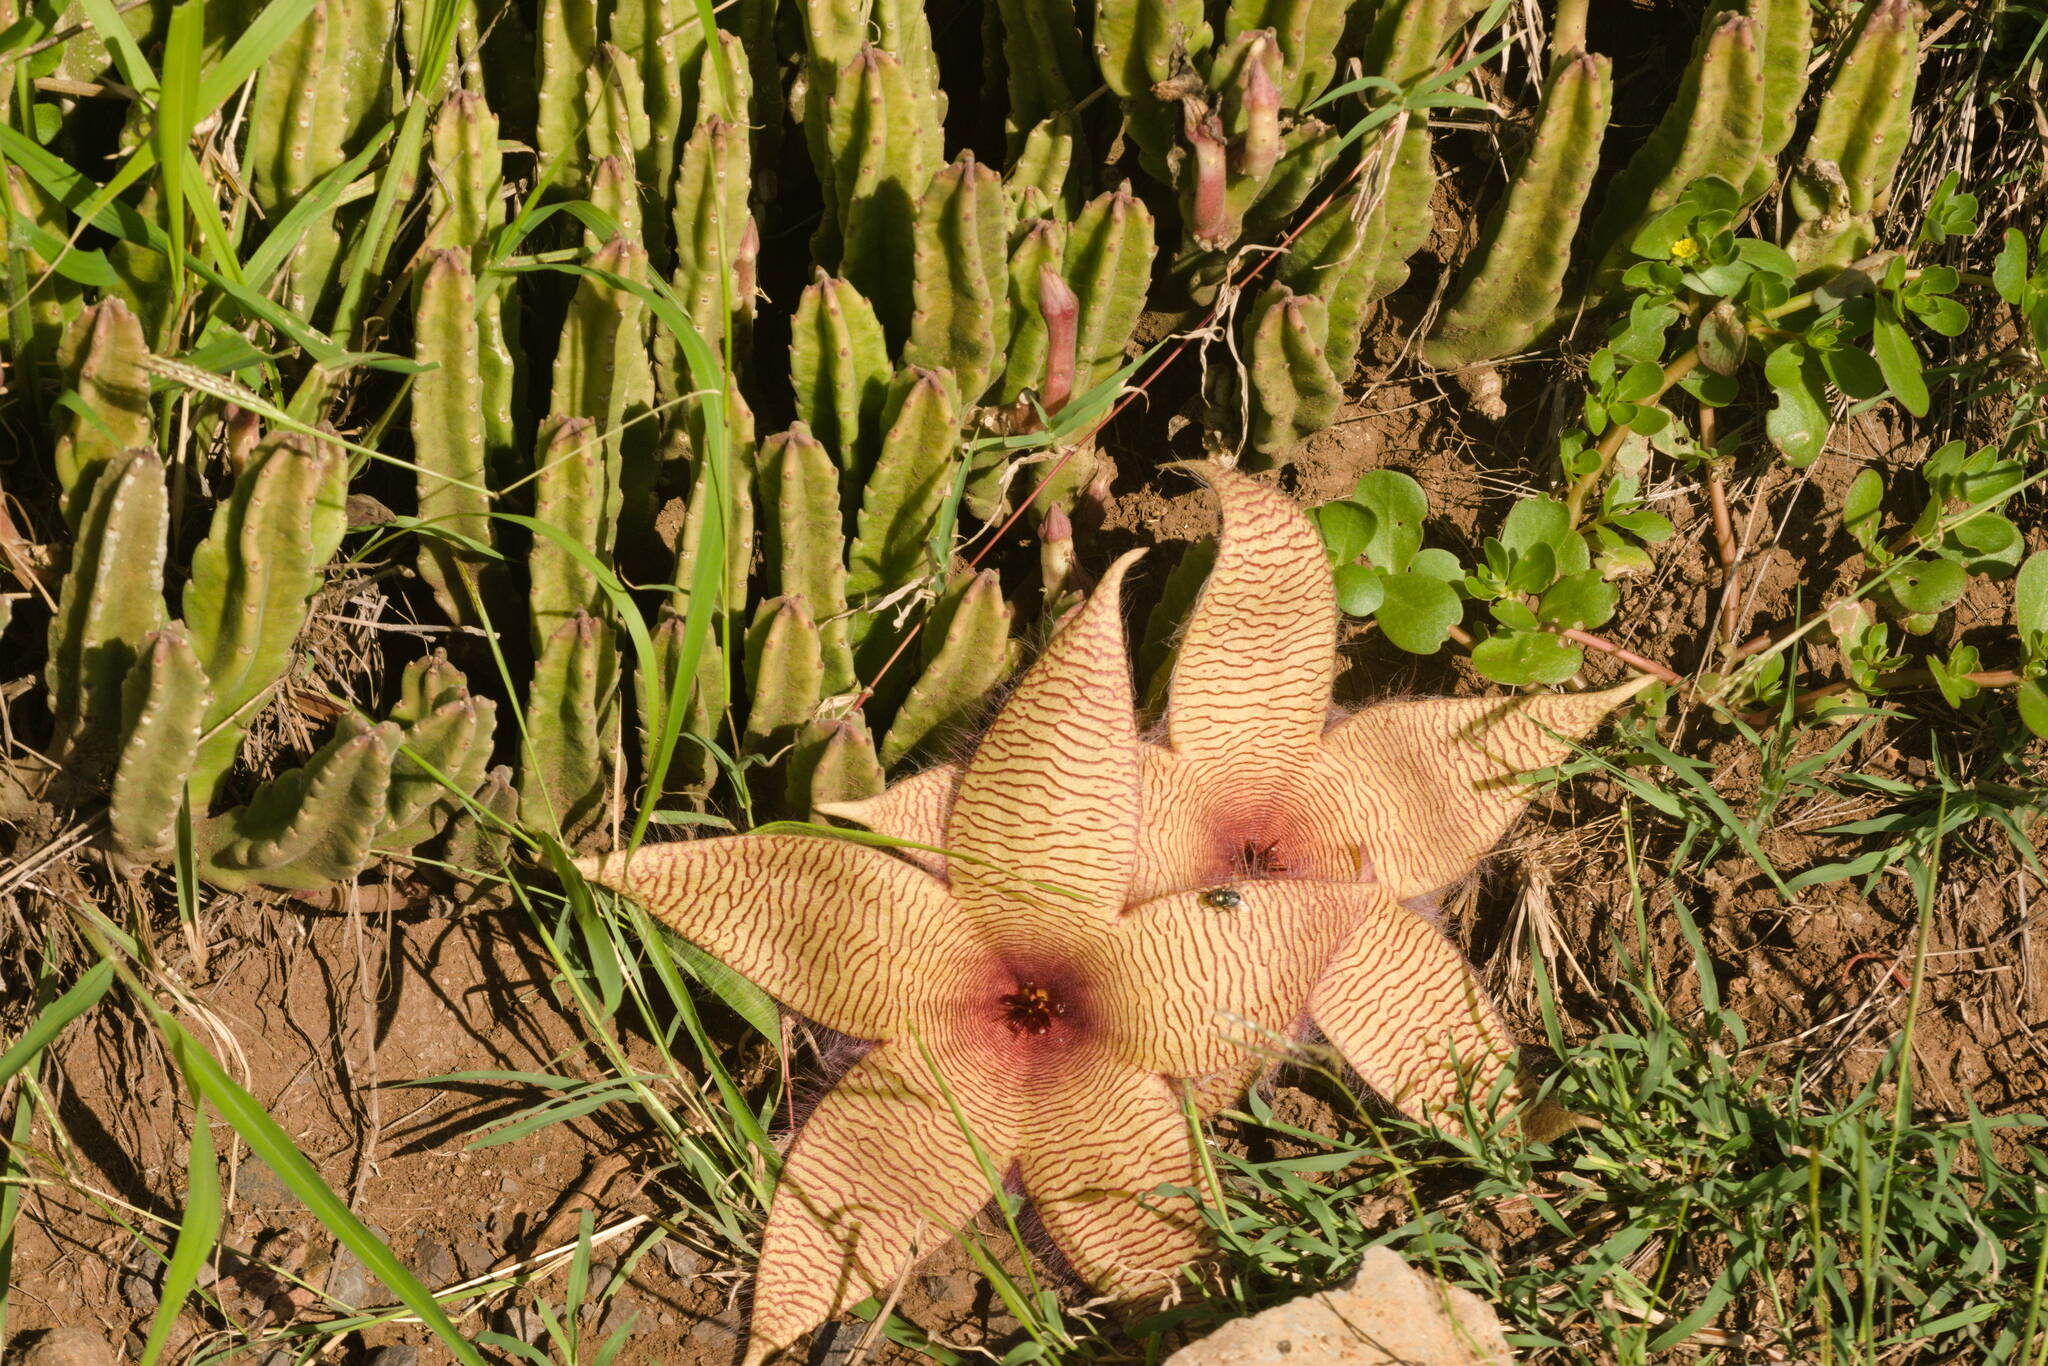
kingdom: Plantae
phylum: Tracheophyta
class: Magnoliopsida
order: Gentianales
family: Apocynaceae
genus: Ceropegia
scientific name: Ceropegia gigantea
